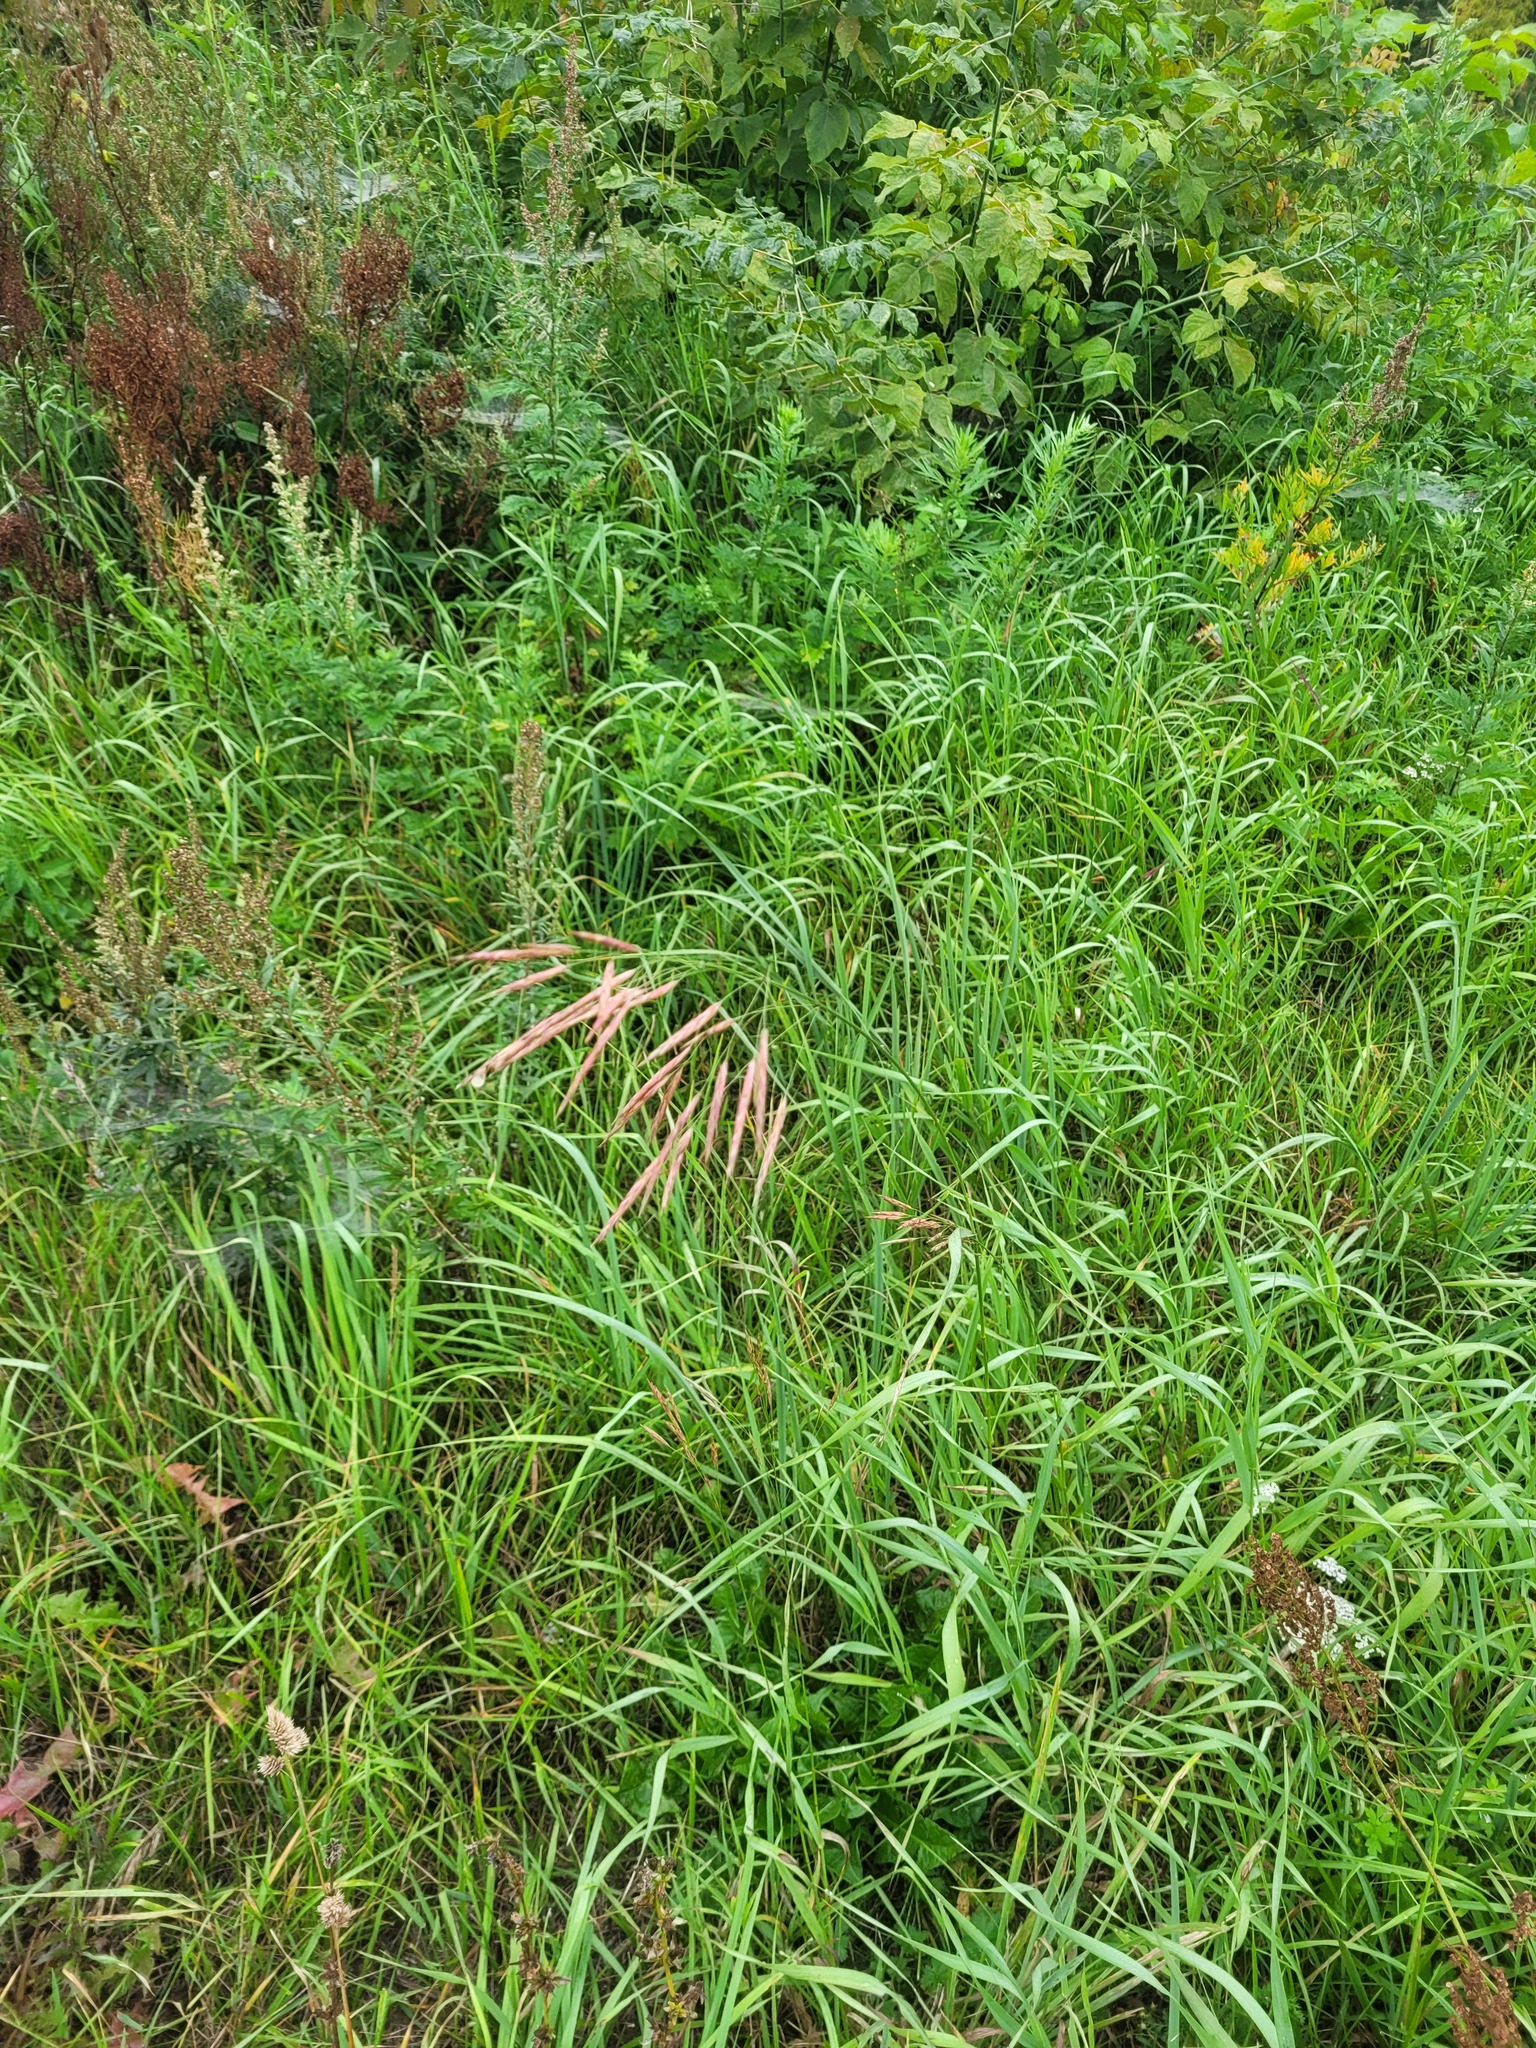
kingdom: Plantae
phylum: Tracheophyta
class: Liliopsida
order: Poales
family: Poaceae
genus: Bromus
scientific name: Bromus inermis
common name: Smooth brome
